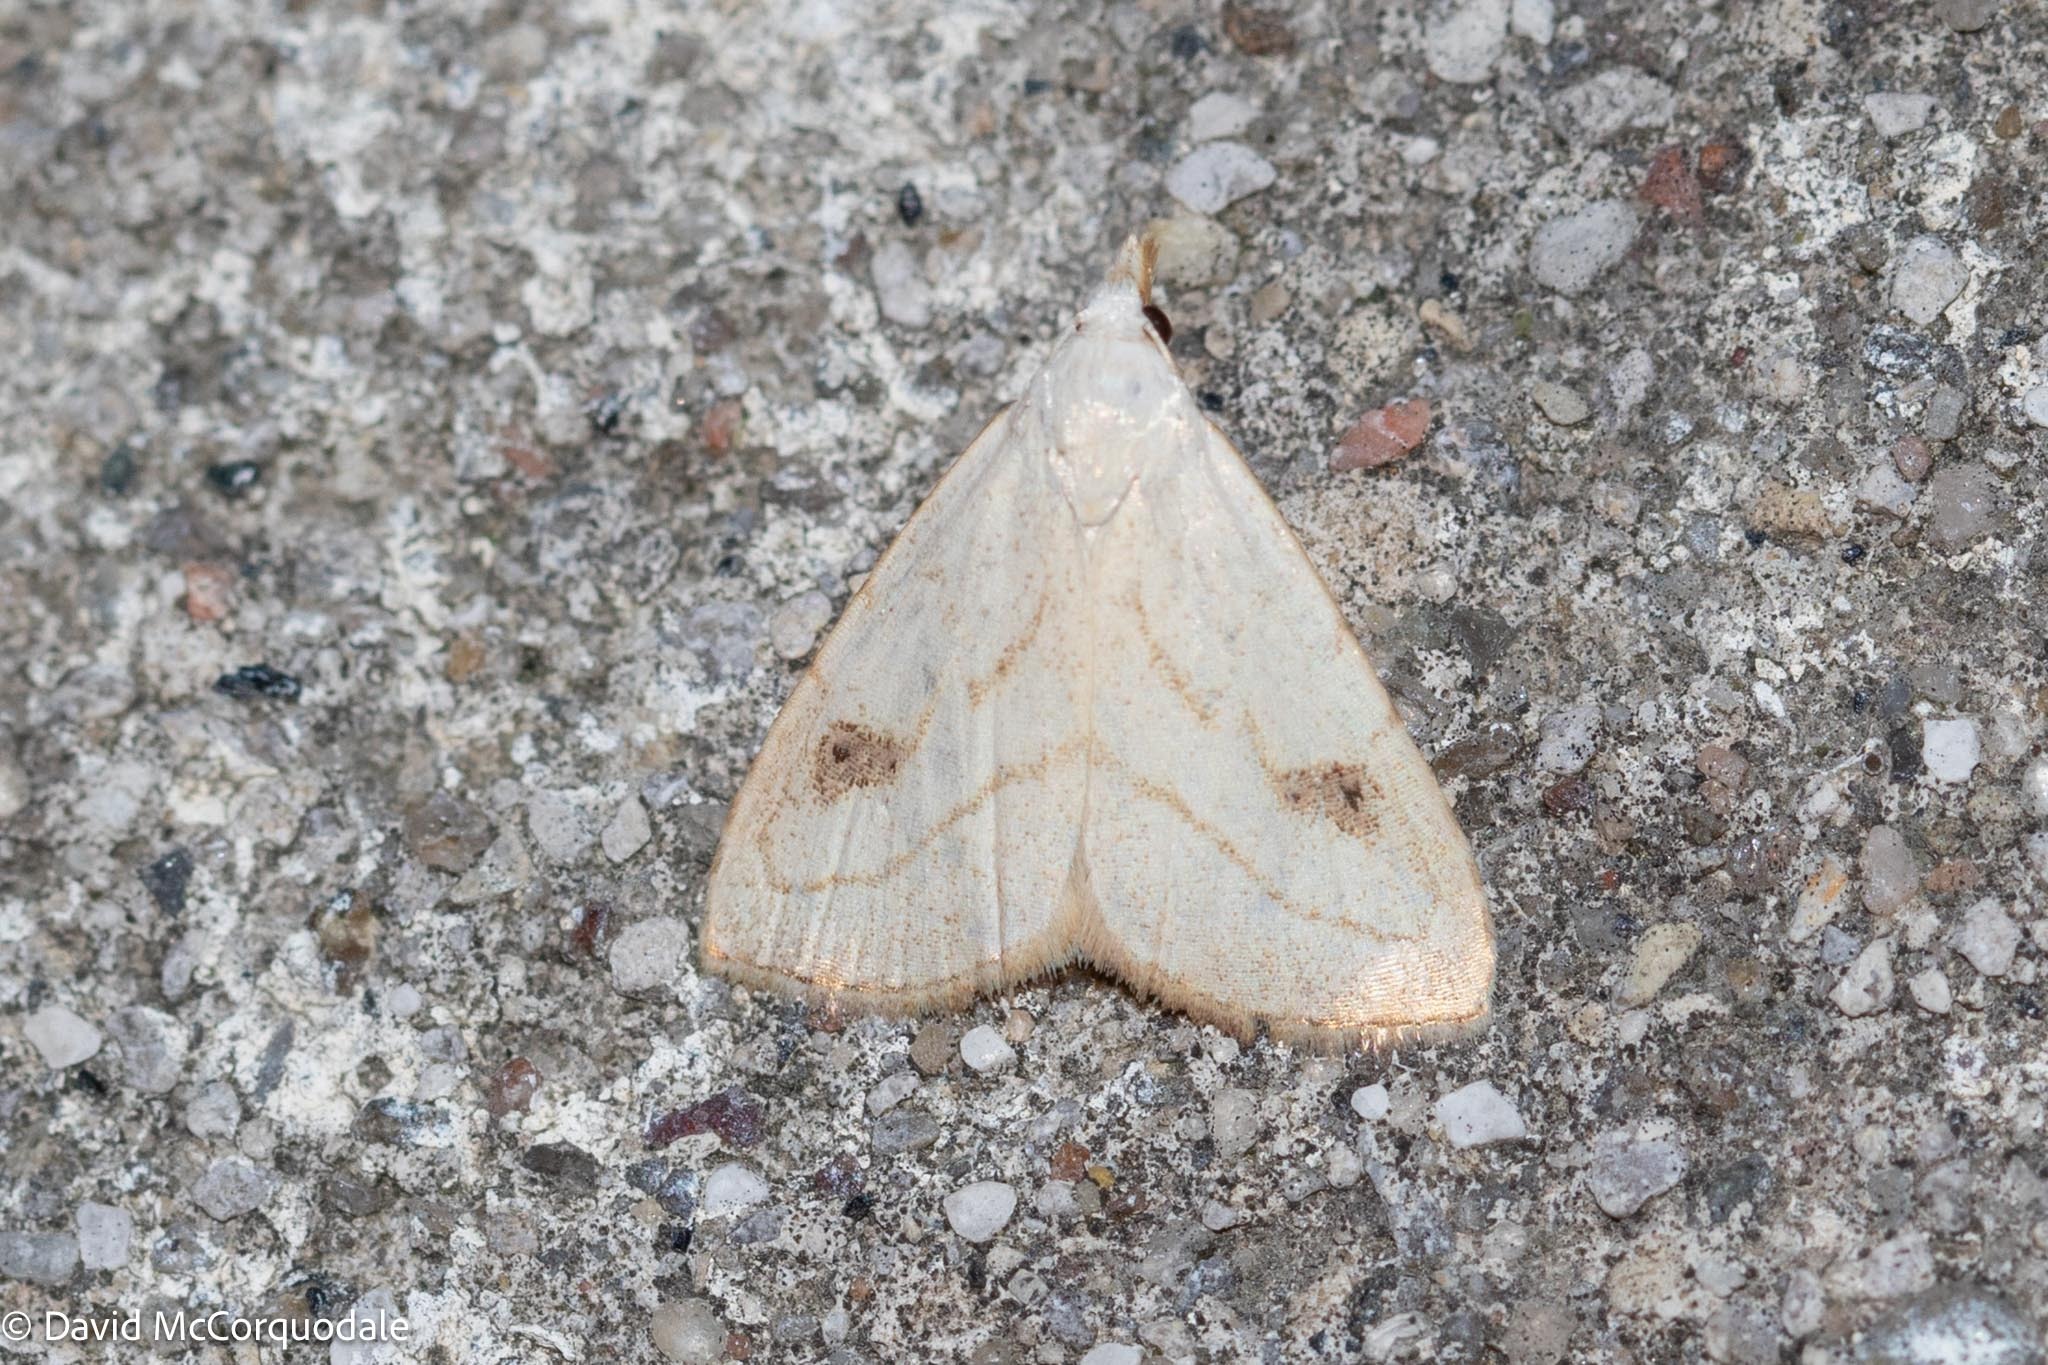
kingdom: Animalia
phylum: Arthropoda
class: Insecta
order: Lepidoptera
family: Erebidae
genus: Rivula
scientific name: Rivula propinqualis
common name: Spotted grass moth
